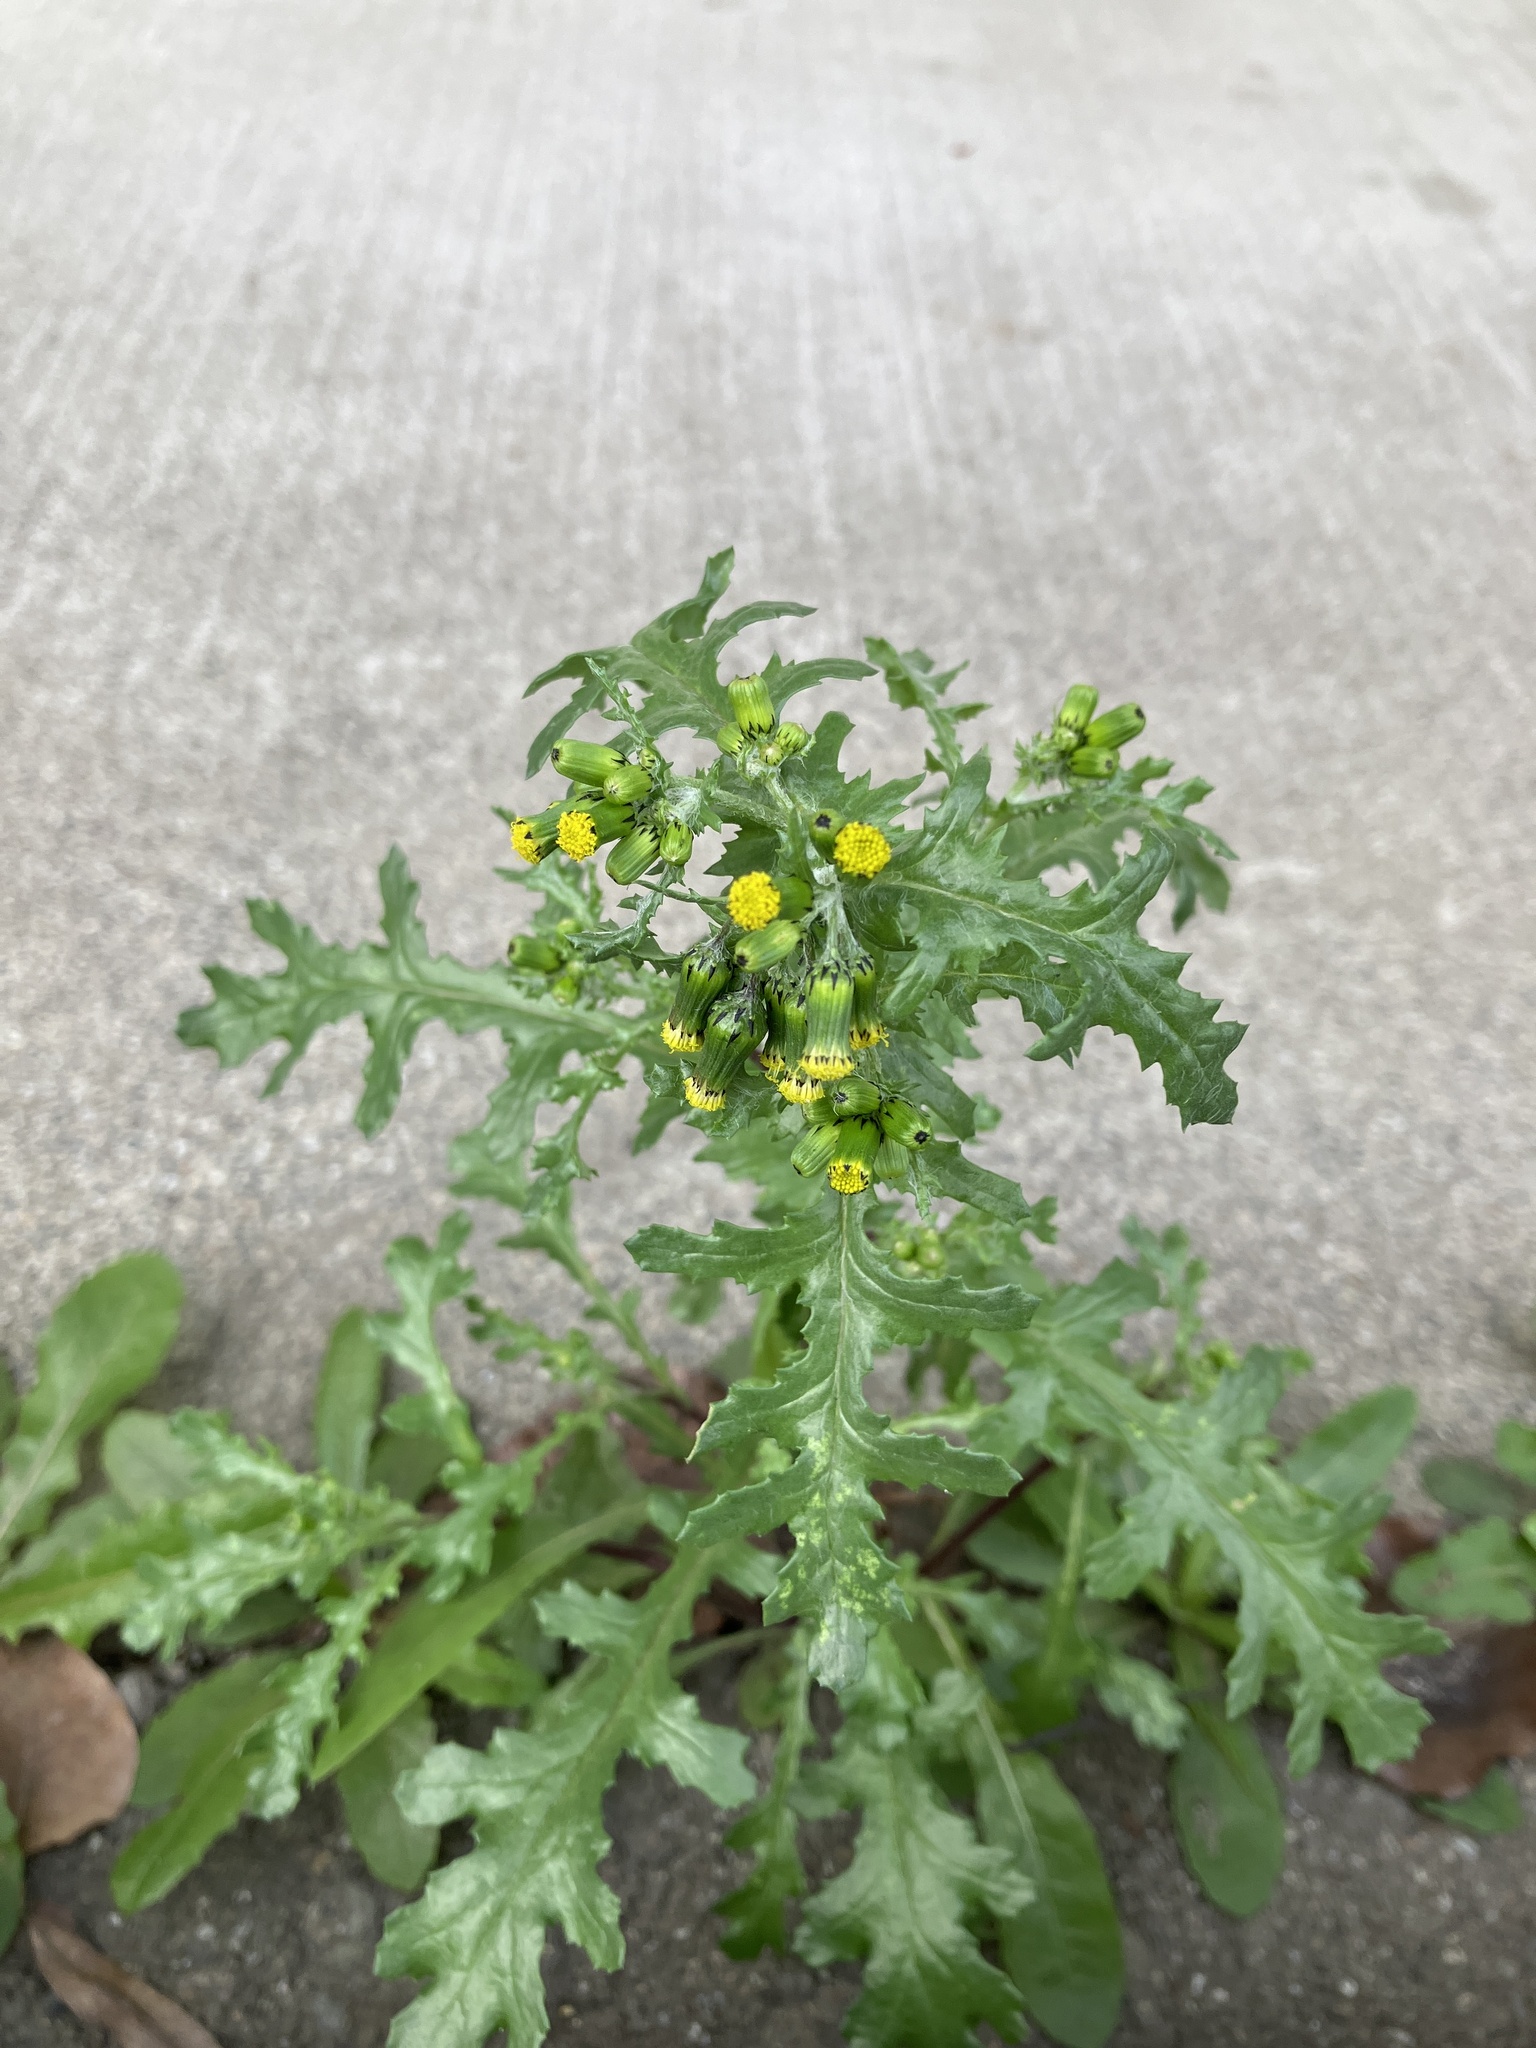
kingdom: Plantae
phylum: Tracheophyta
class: Magnoliopsida
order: Asterales
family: Asteraceae
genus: Senecio
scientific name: Senecio vulgaris
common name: Old-man-in-the-spring
